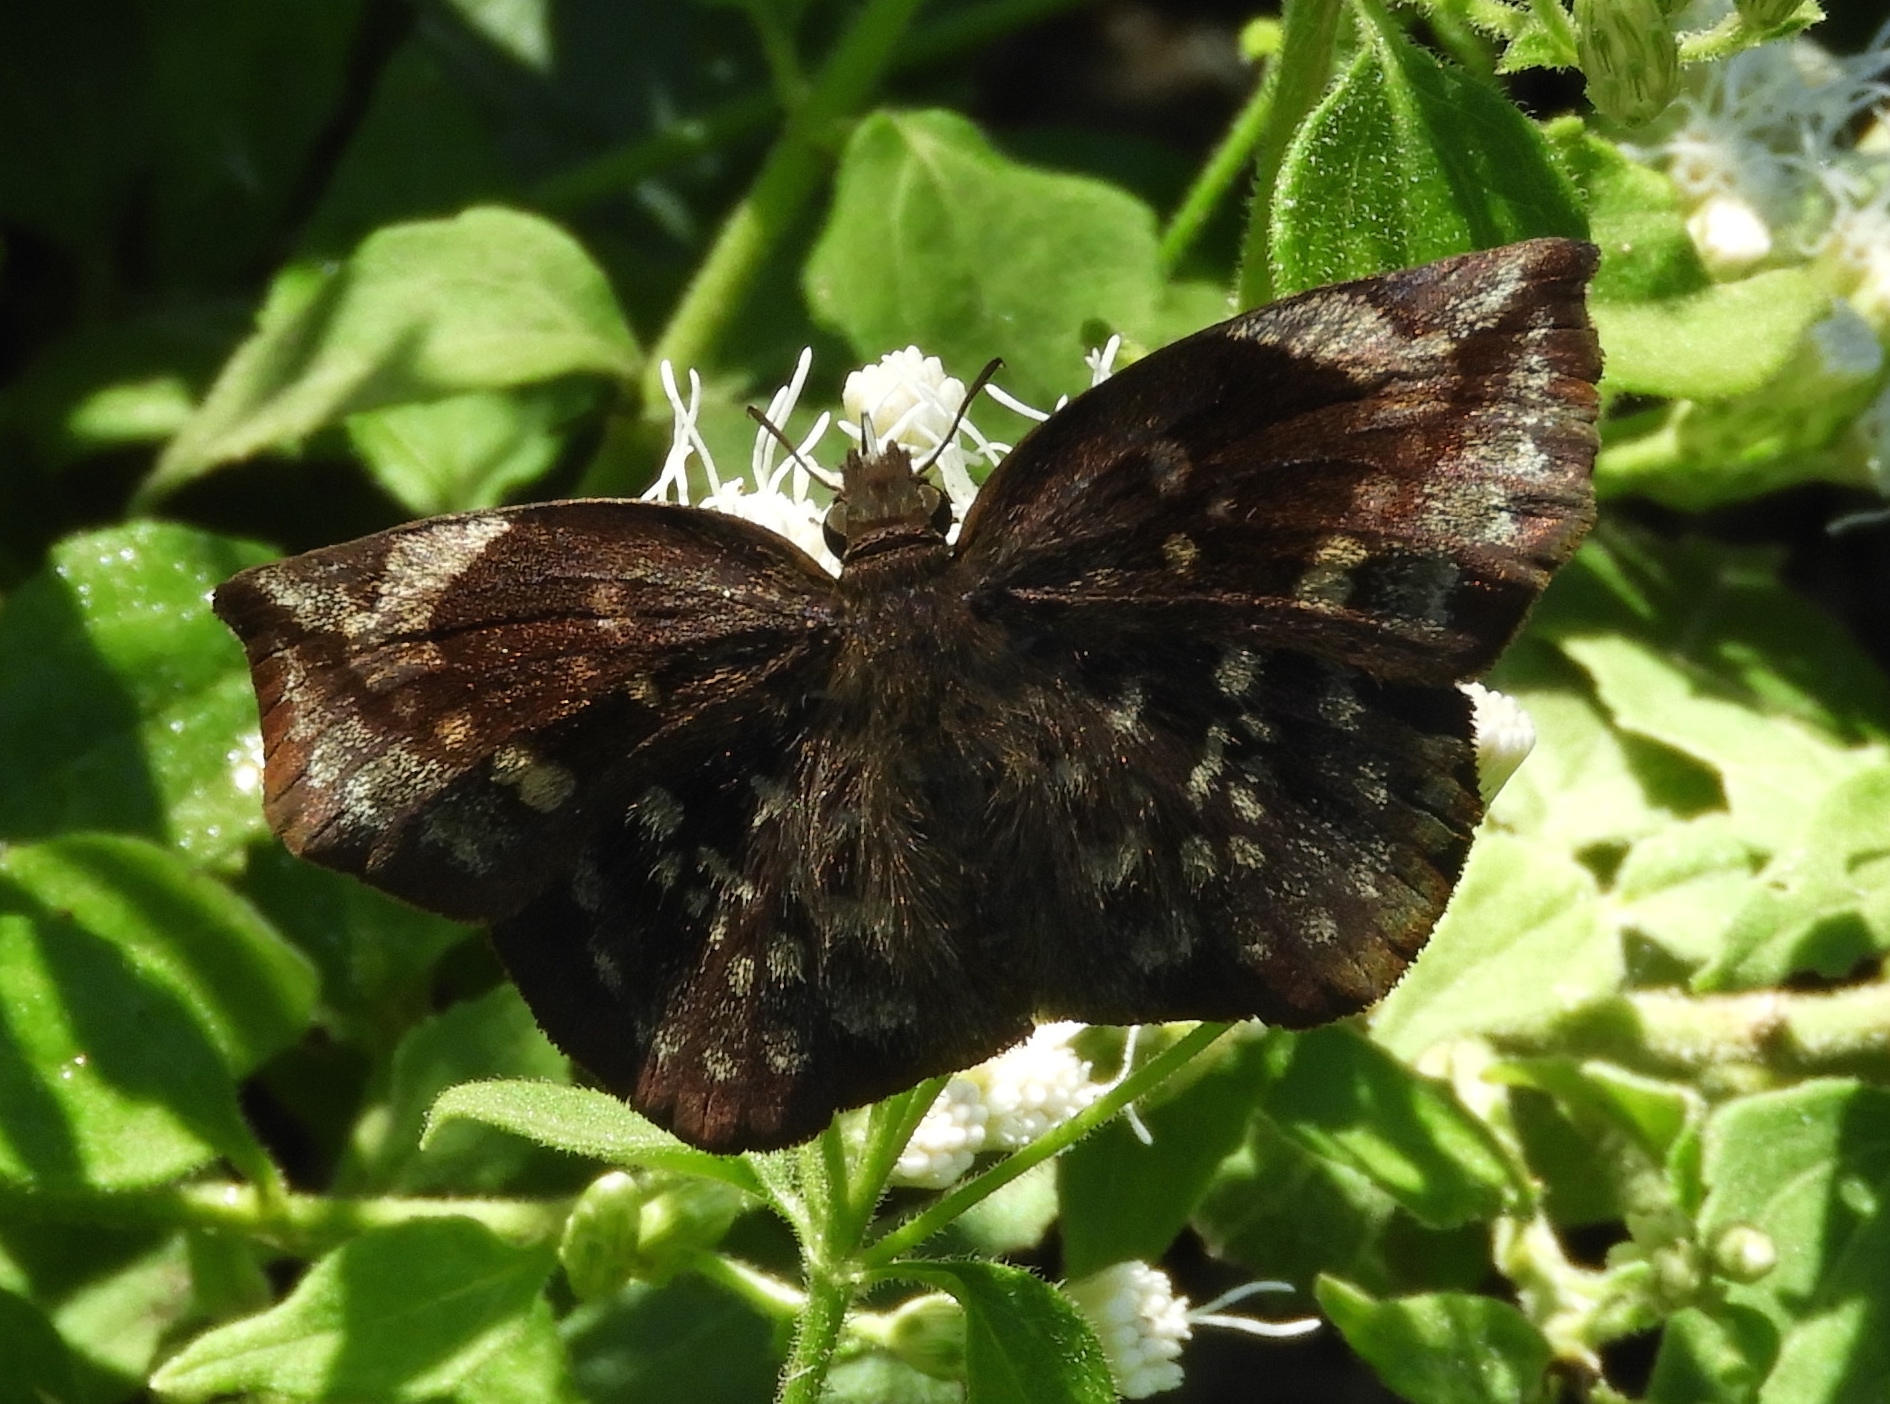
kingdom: Animalia
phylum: Arthropoda
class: Insecta
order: Lepidoptera
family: Hesperiidae
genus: Achlyodes
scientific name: Achlyodes thraso
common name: Sickle-winged skipper
